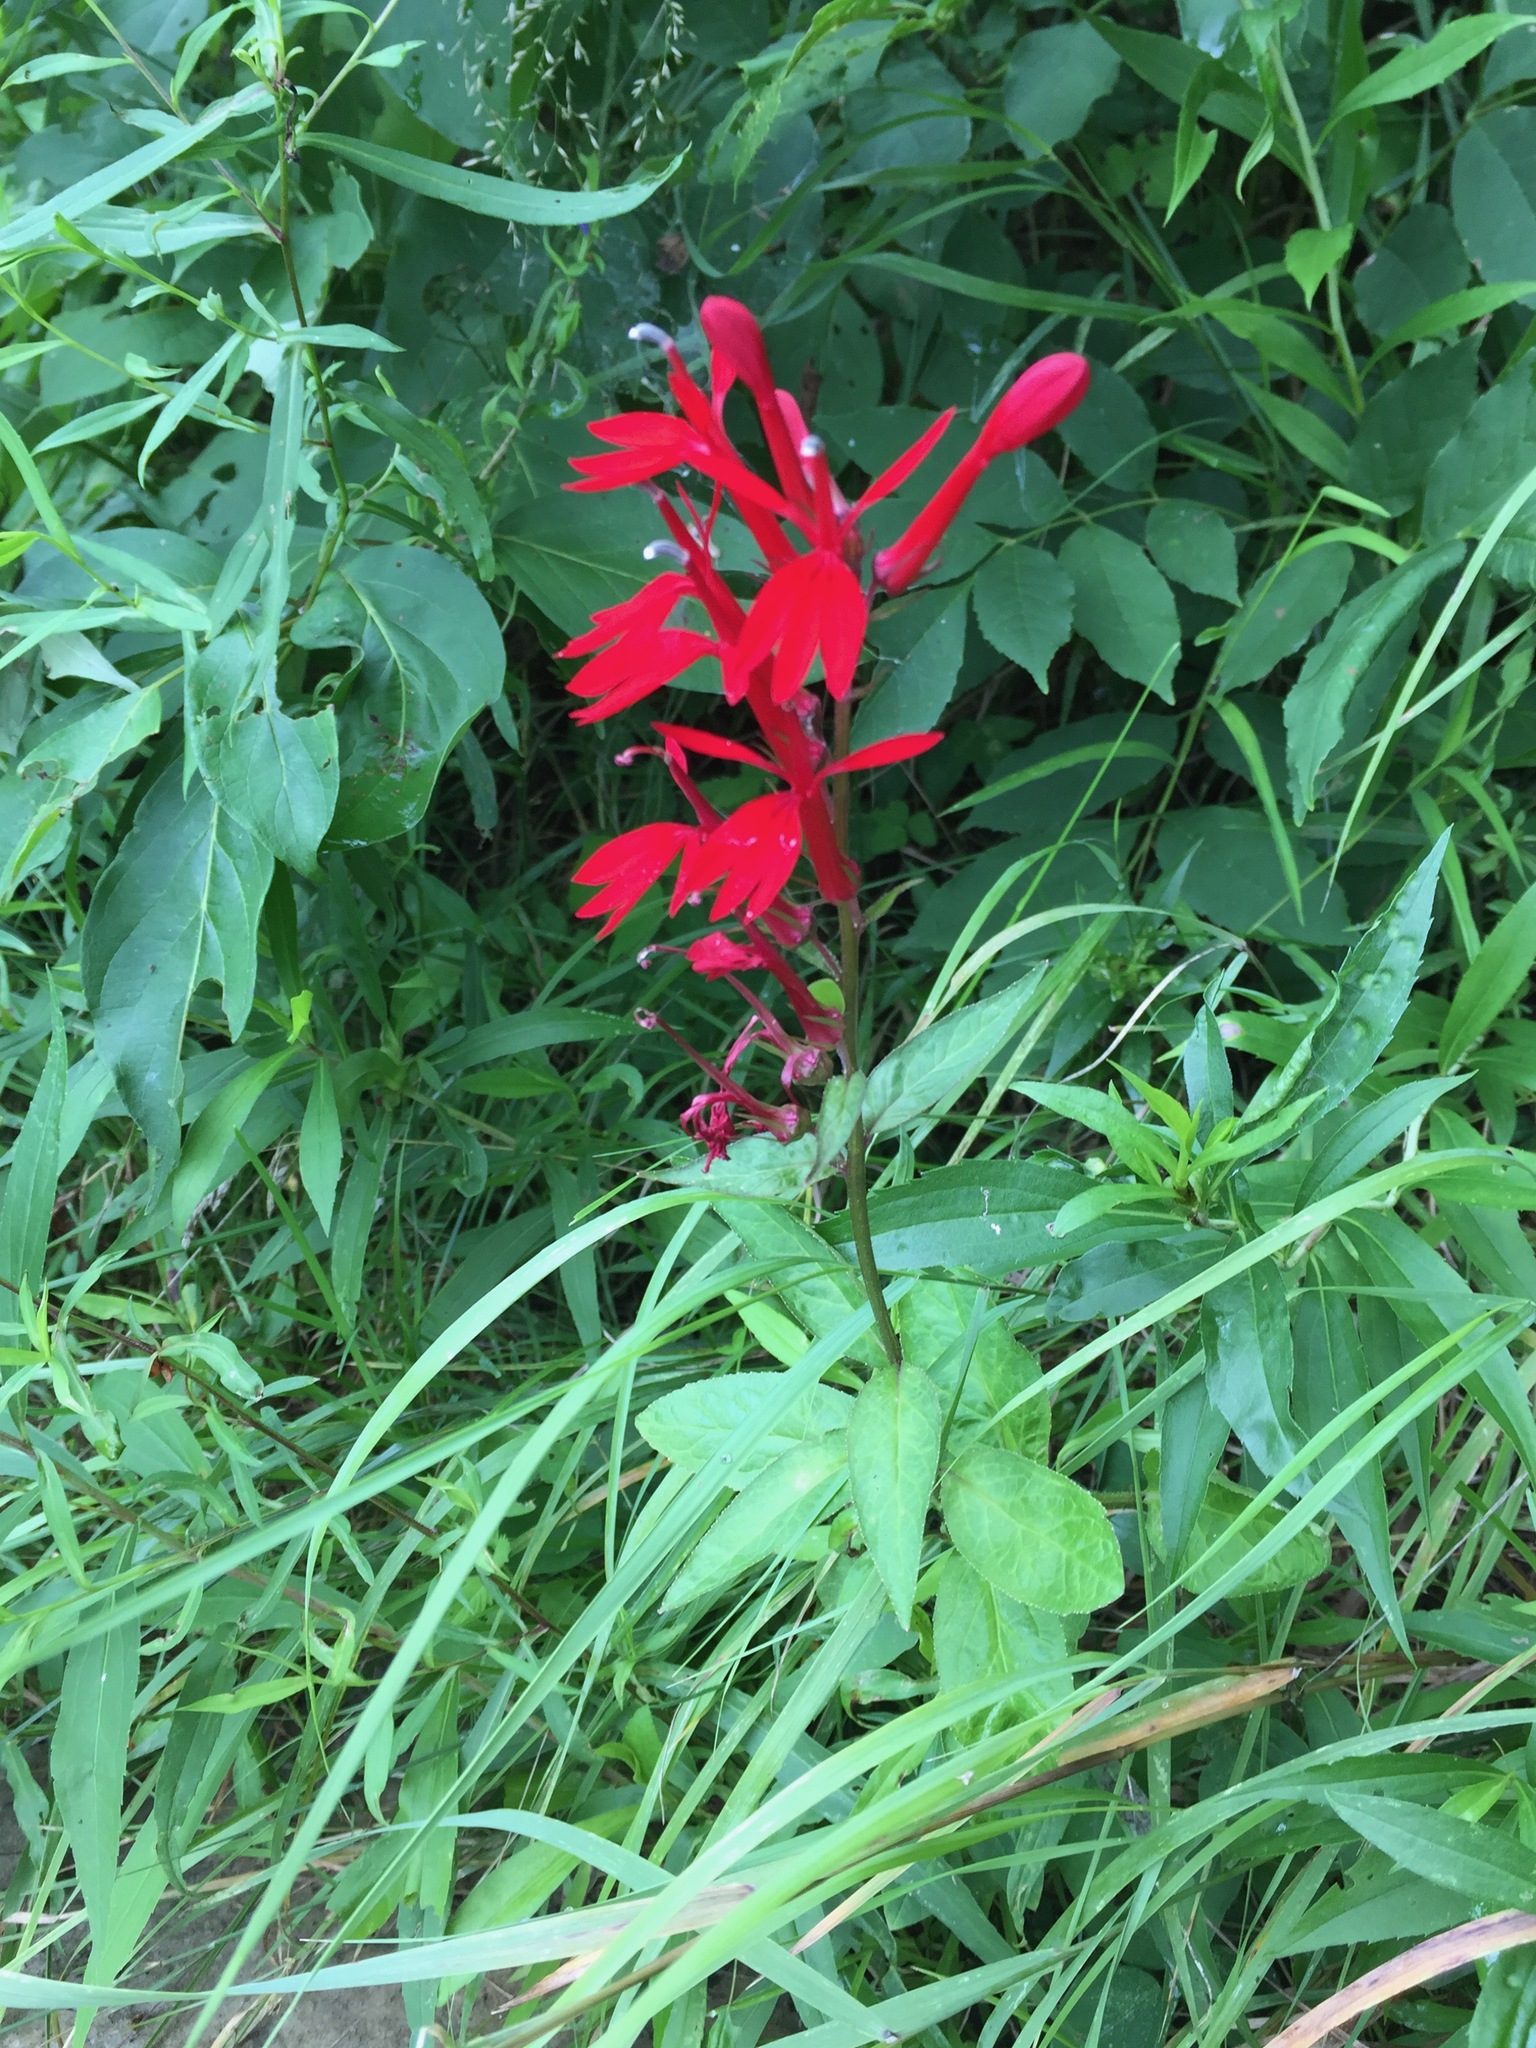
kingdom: Plantae
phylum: Tracheophyta
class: Magnoliopsida
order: Asterales
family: Campanulaceae
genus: Lobelia
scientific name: Lobelia cardinalis
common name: Cardinal flower
